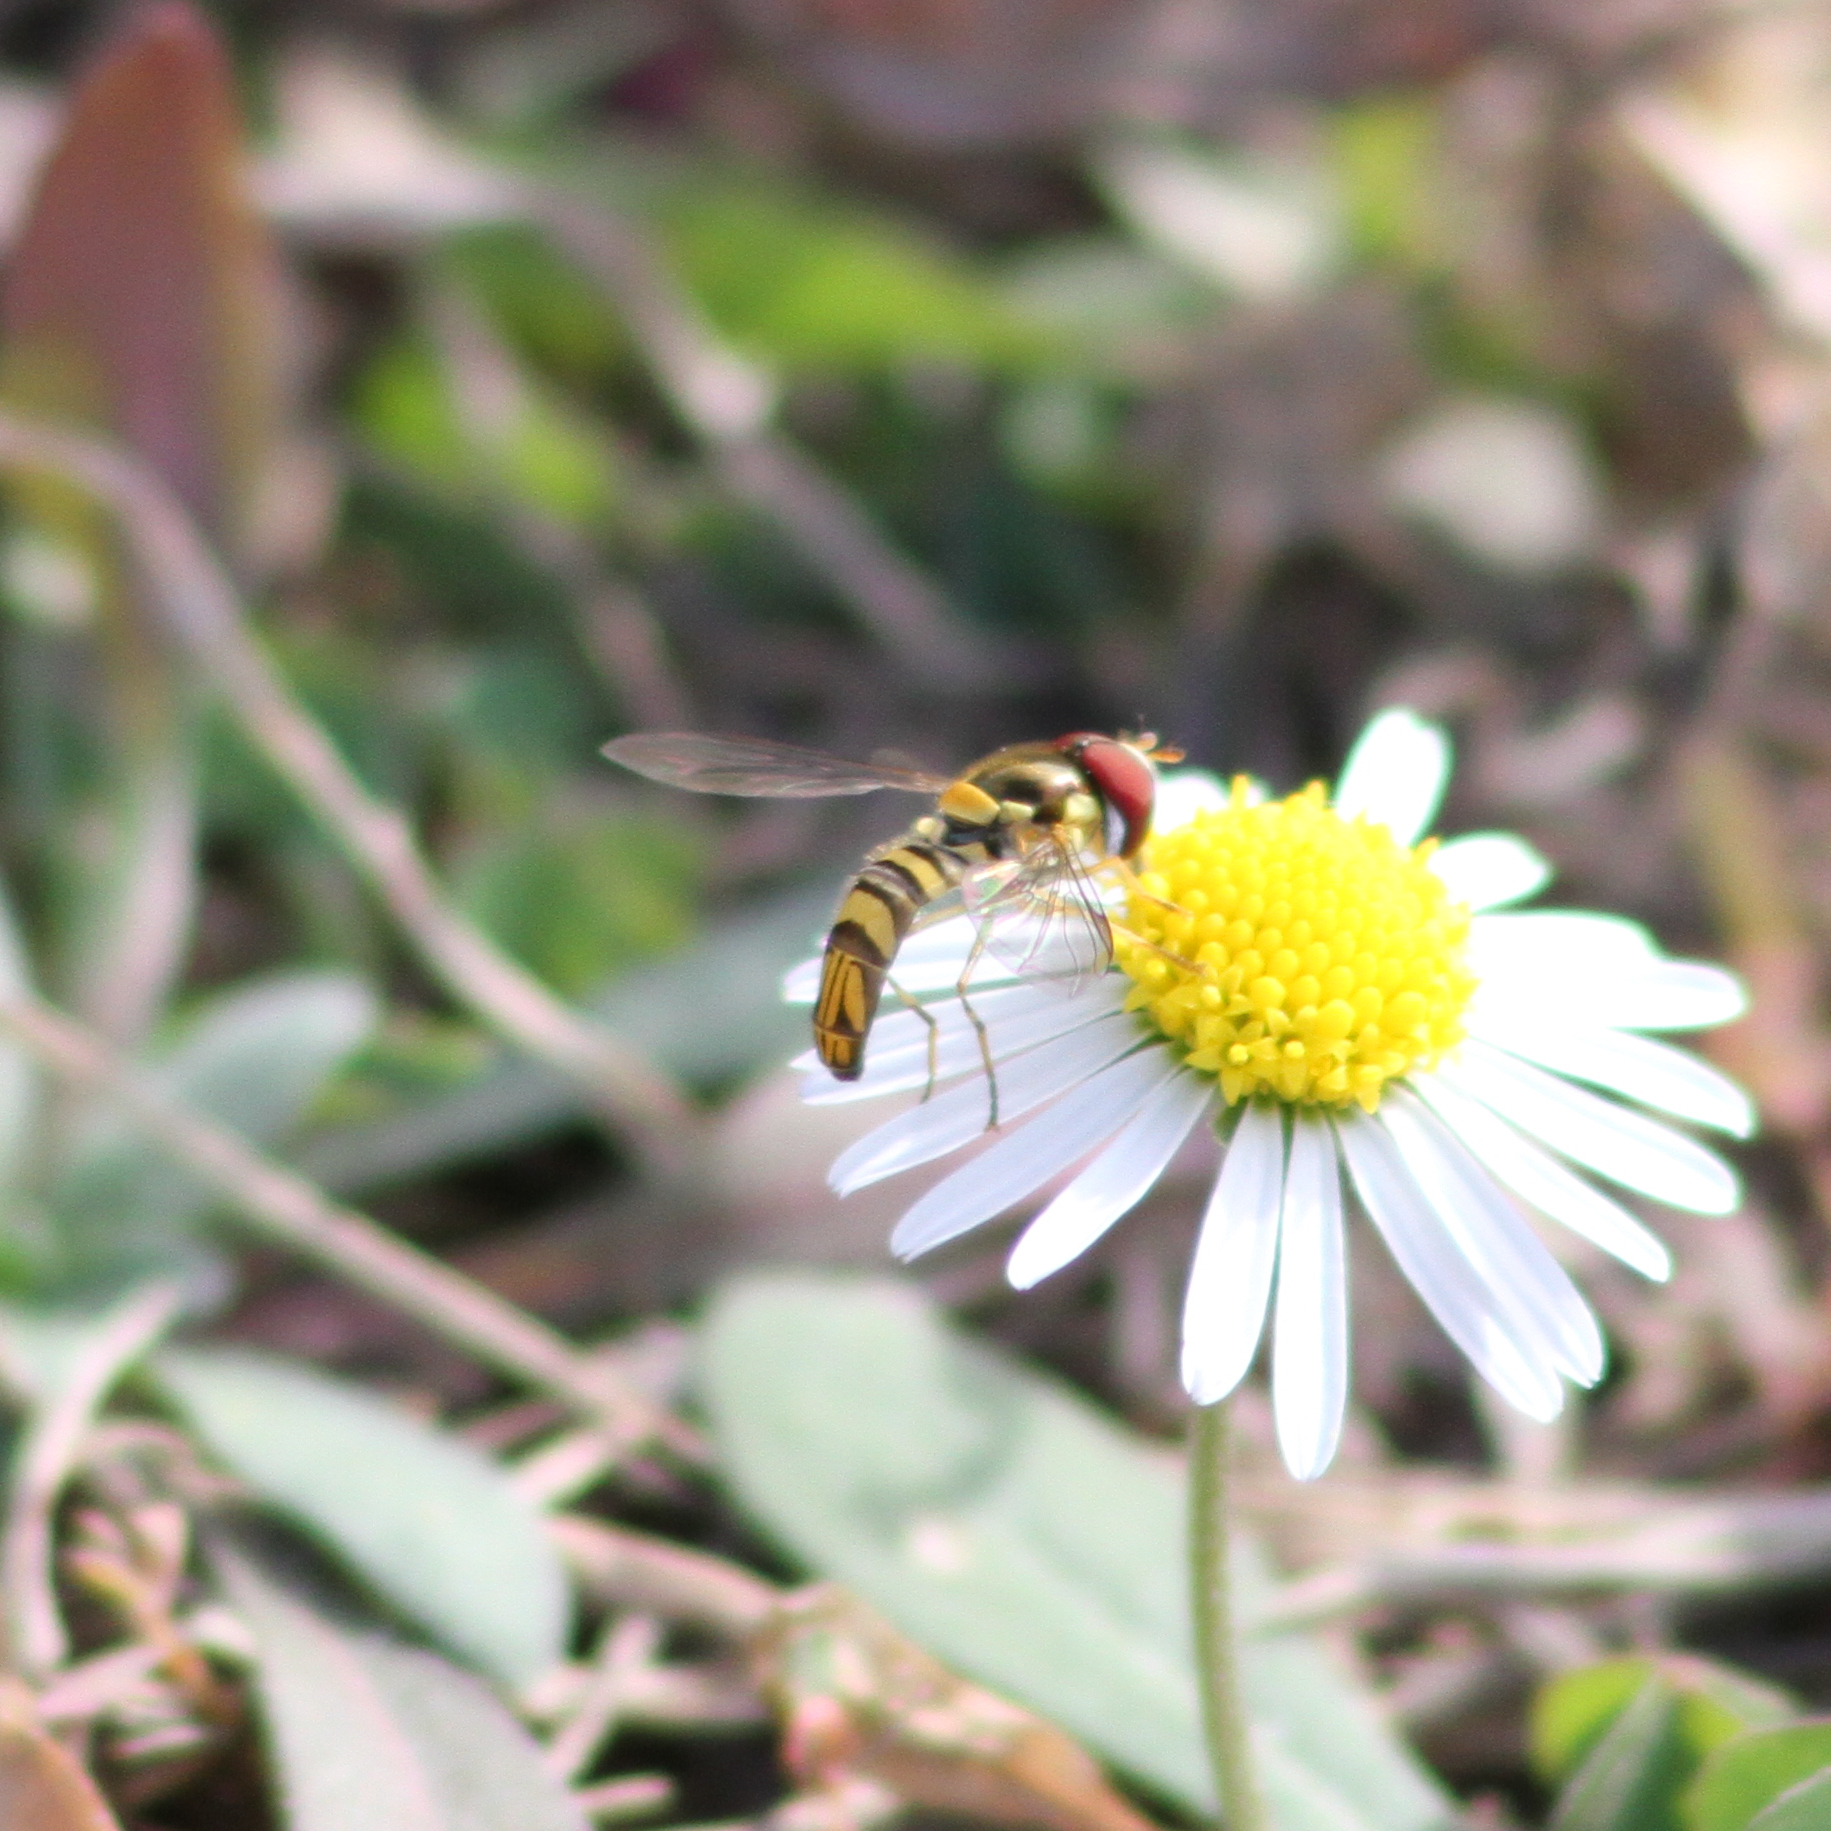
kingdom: Animalia
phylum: Arthropoda
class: Insecta
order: Diptera
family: Syrphidae
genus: Allograpta
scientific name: Allograpta obliqua
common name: Common oblique syrphid
